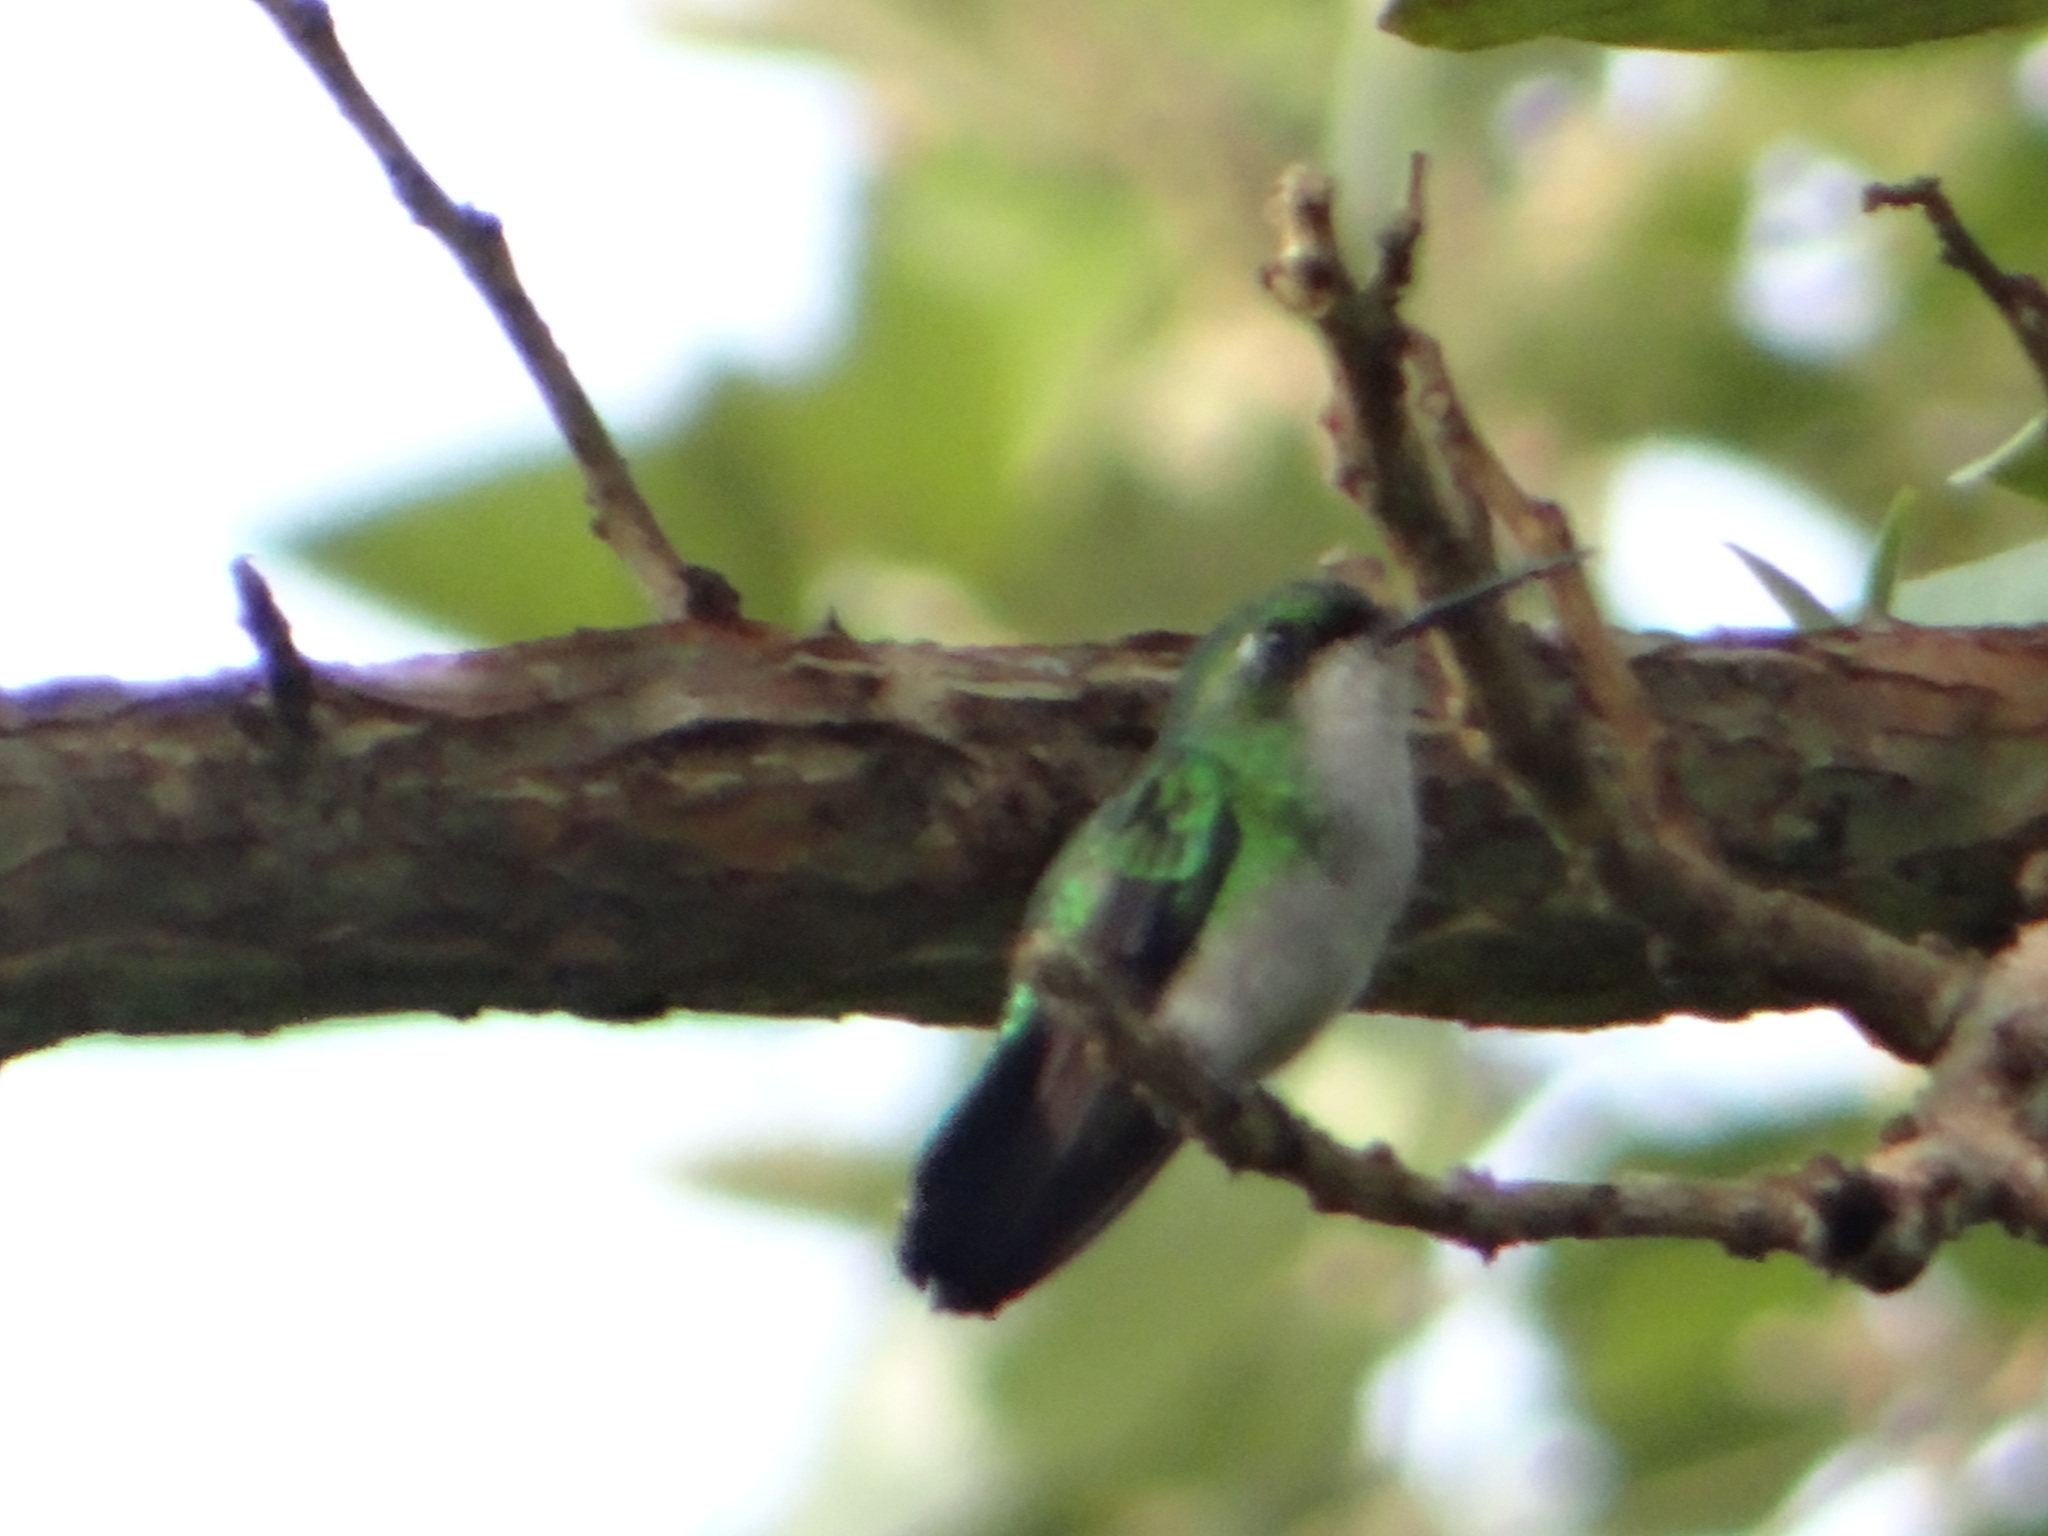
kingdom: Animalia
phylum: Chordata
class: Aves
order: Apodiformes
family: Trochilidae
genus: Chlorostilbon
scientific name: Chlorostilbon mellisugus
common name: Blue-tailed emerald
